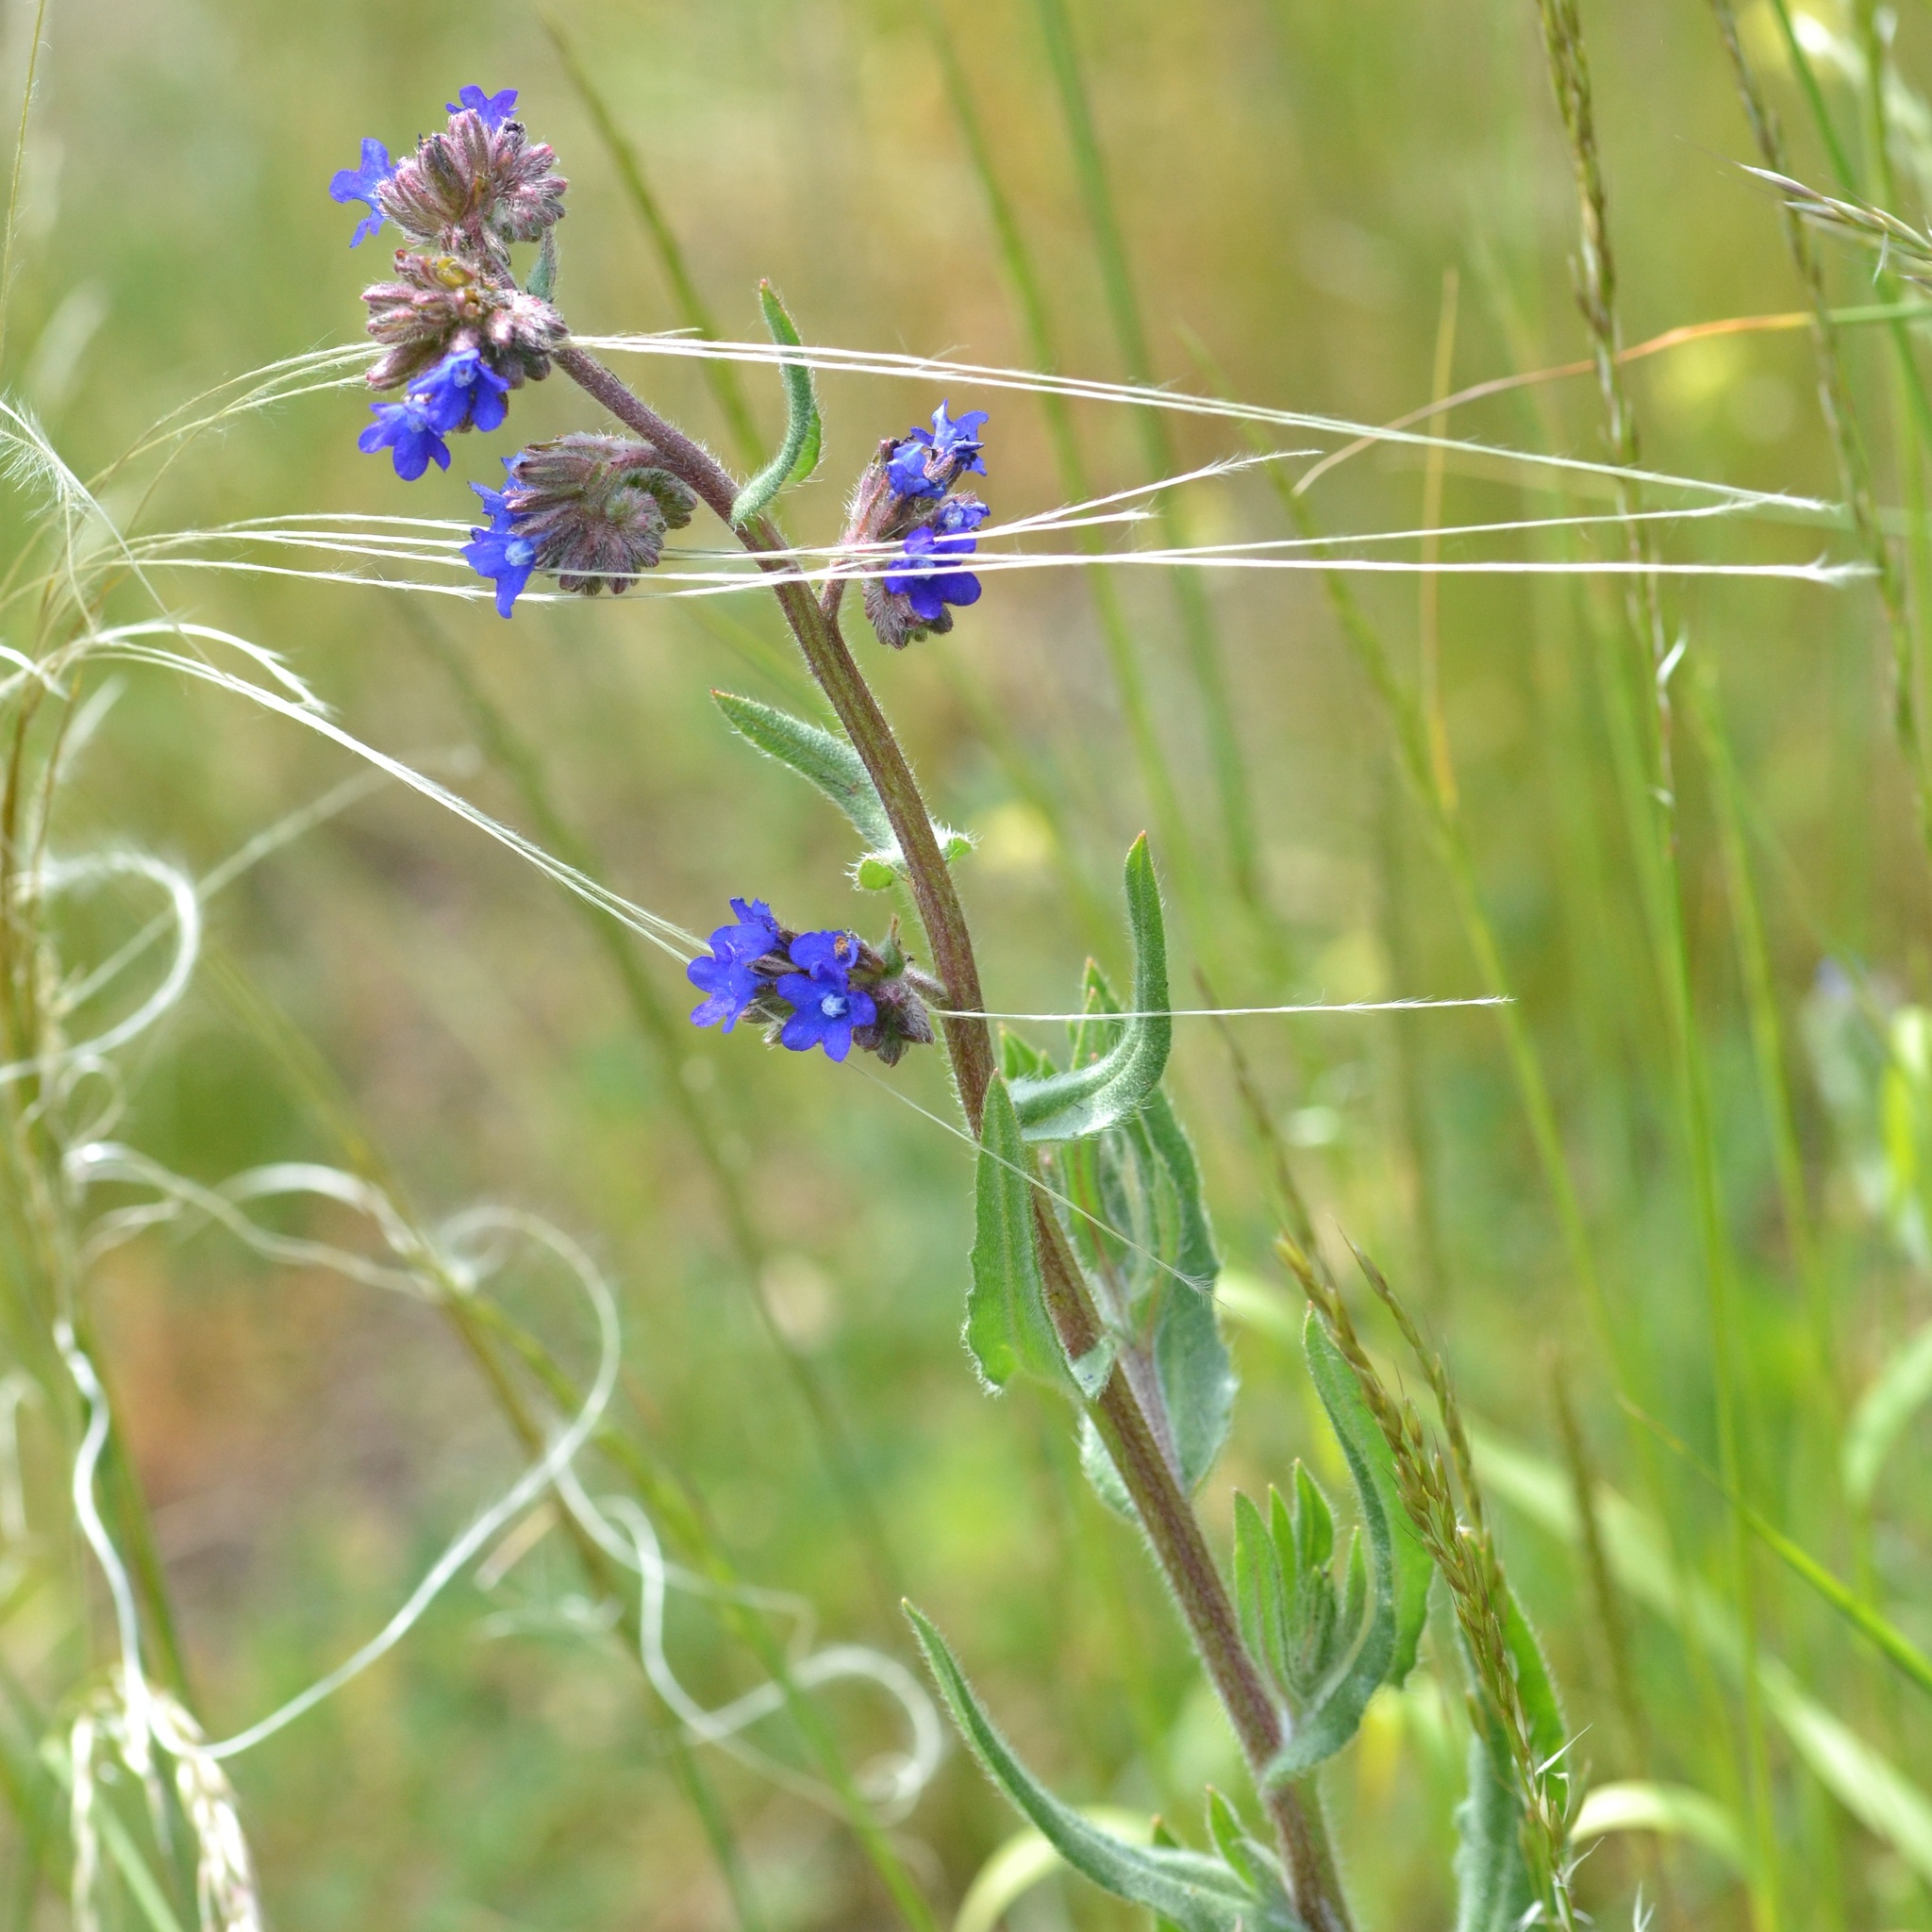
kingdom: Plantae
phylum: Tracheophyta
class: Magnoliopsida
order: Boraginales
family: Boraginaceae
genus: Anchusa
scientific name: Anchusa officinalis
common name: Alkanet
